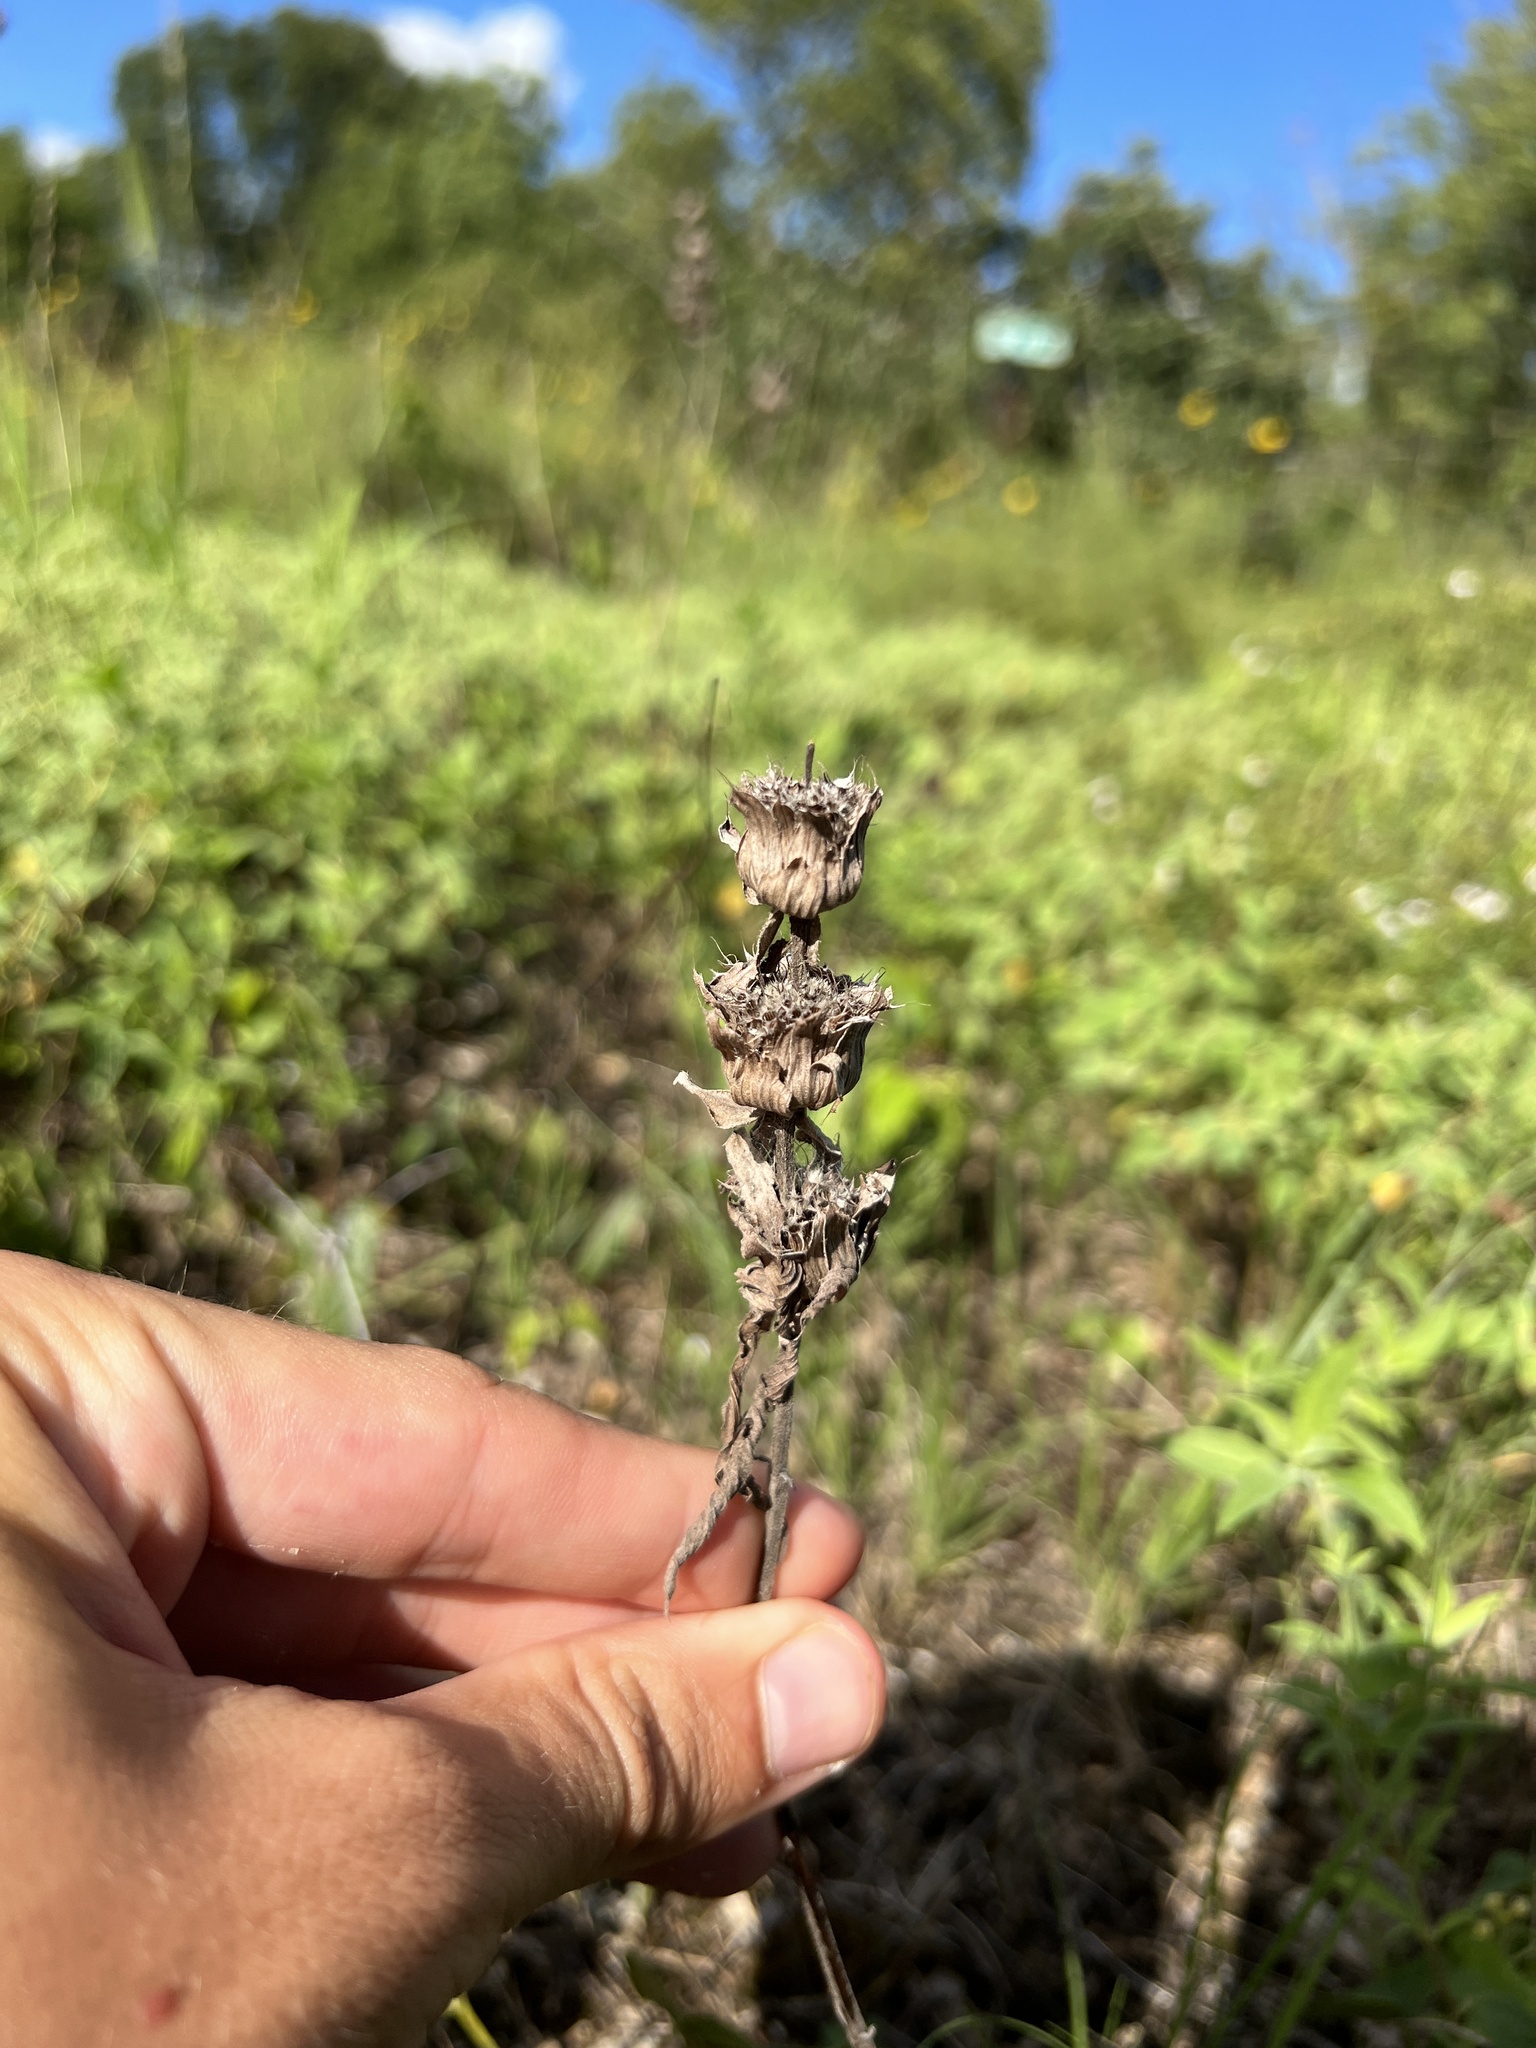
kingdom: Plantae
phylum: Tracheophyta
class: Magnoliopsida
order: Lamiales
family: Lamiaceae
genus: Monarda
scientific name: Monarda citriodora
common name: Lemon beebalm
